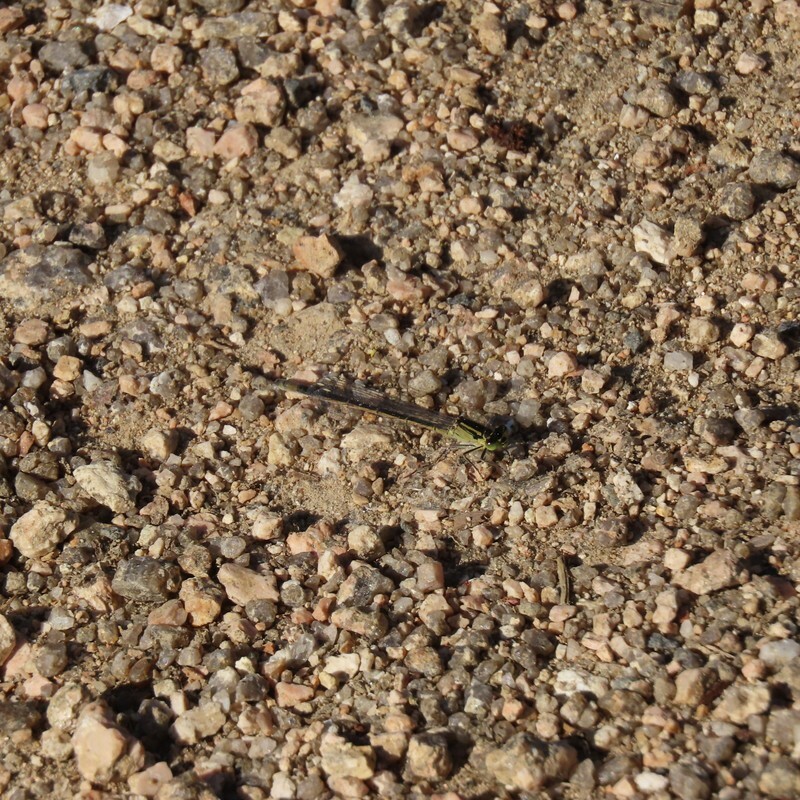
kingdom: Animalia
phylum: Arthropoda
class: Insecta
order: Odonata
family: Coenagrionidae
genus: Ischnura
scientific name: Ischnura heterosticta
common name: Common bluetail
